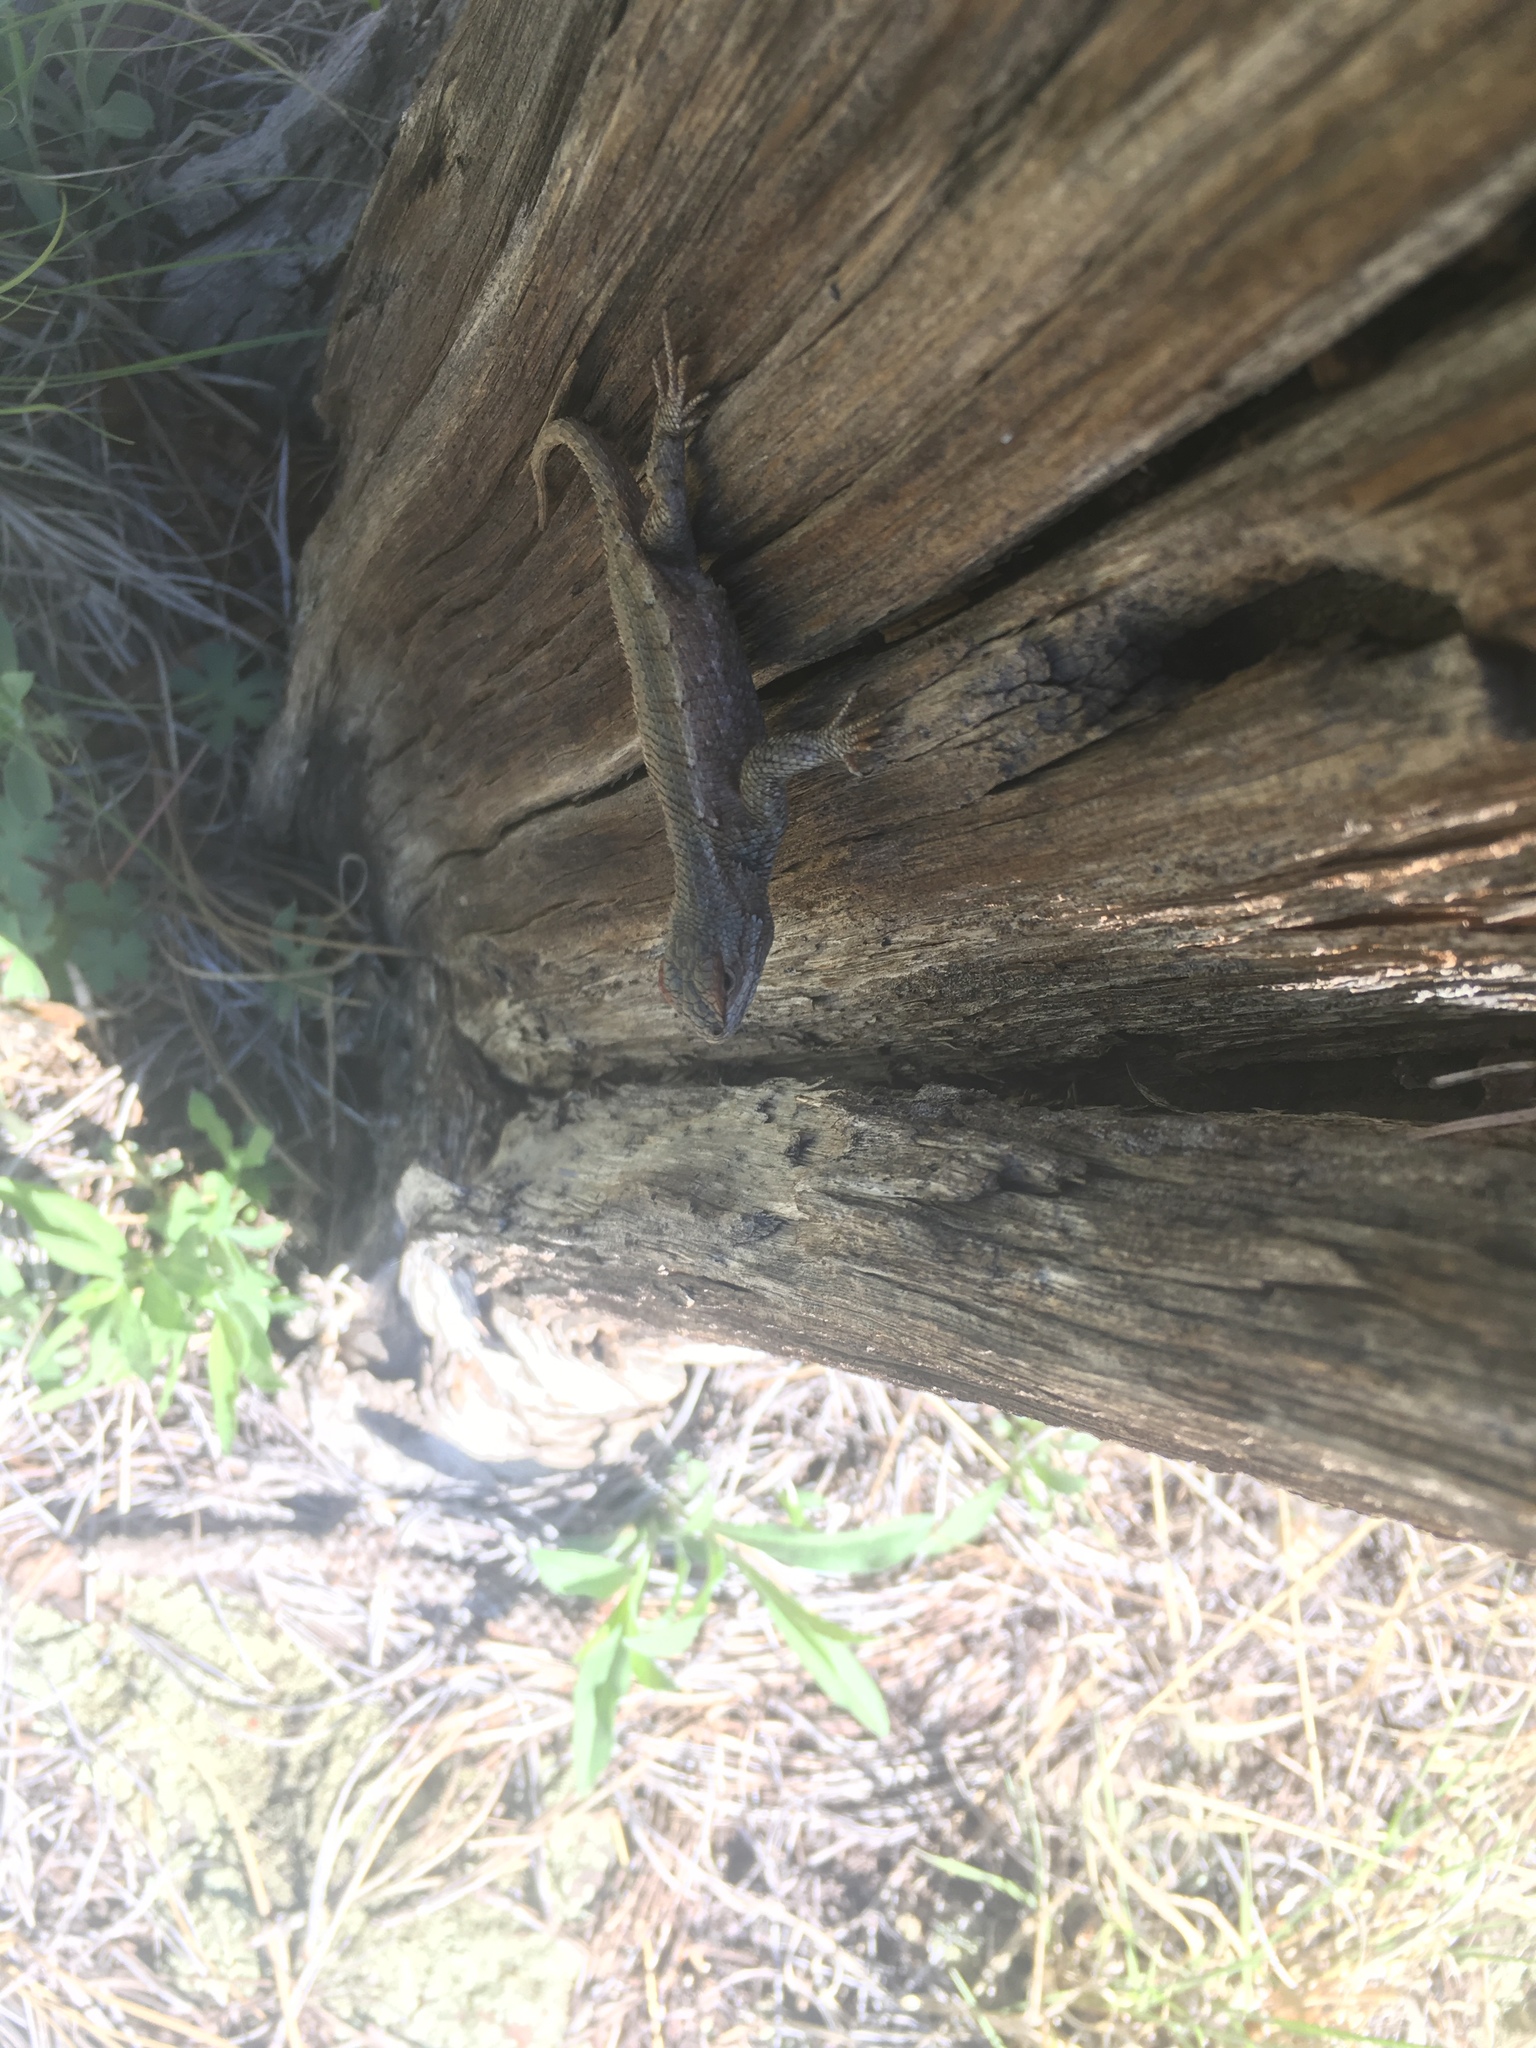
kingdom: Animalia
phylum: Chordata
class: Squamata
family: Phrynosomatidae
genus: Sceloporus
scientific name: Sceloporus tristichus
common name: Plateau fence lizard
